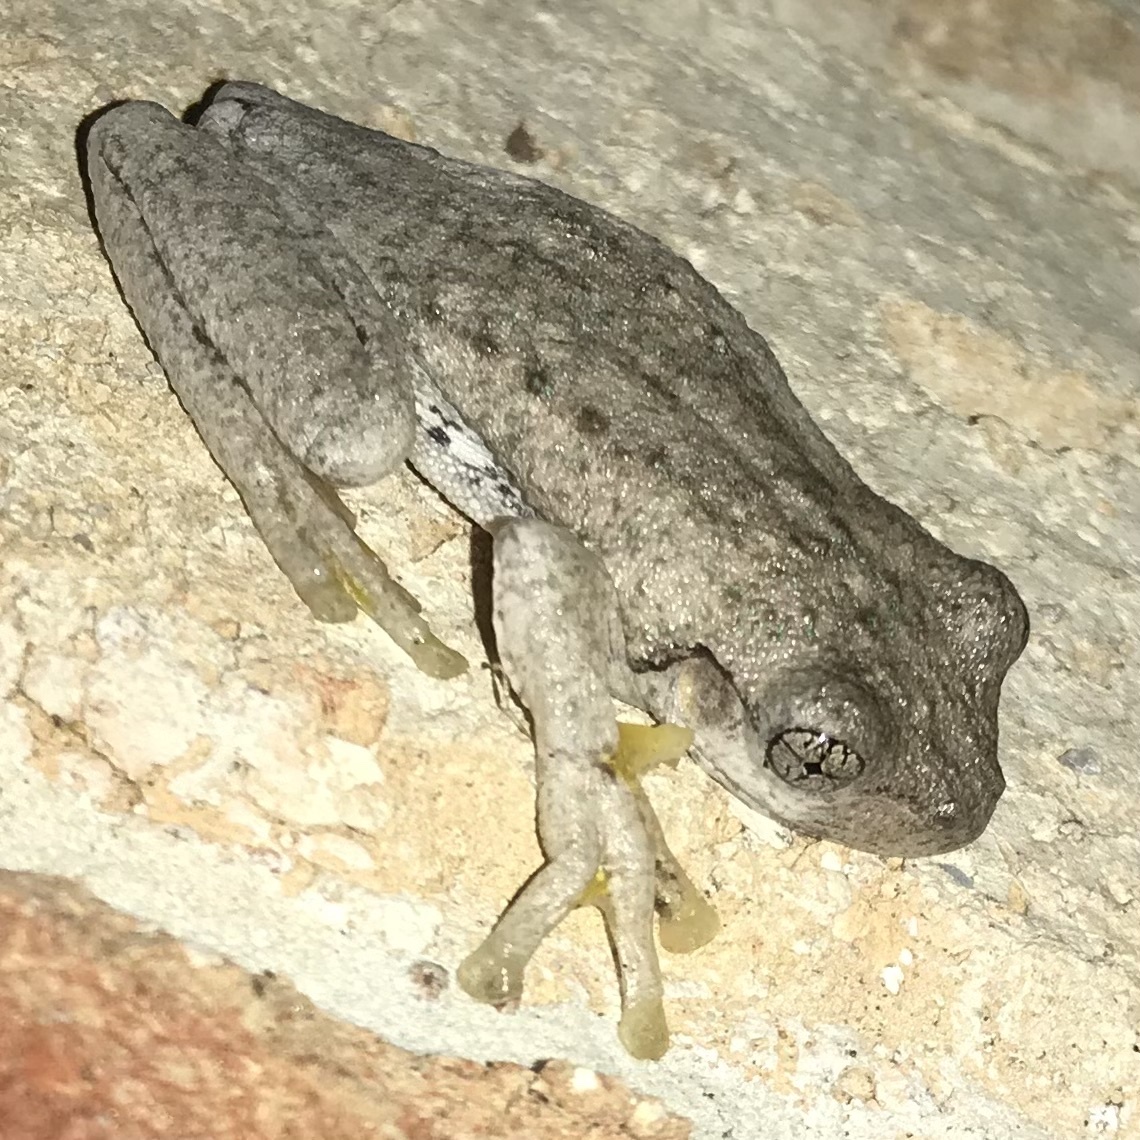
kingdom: Animalia
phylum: Chordata
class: Amphibia
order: Anura
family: Pelodryadidae
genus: Litoria
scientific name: Litoria peronii
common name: Emerald spotted treefrog
